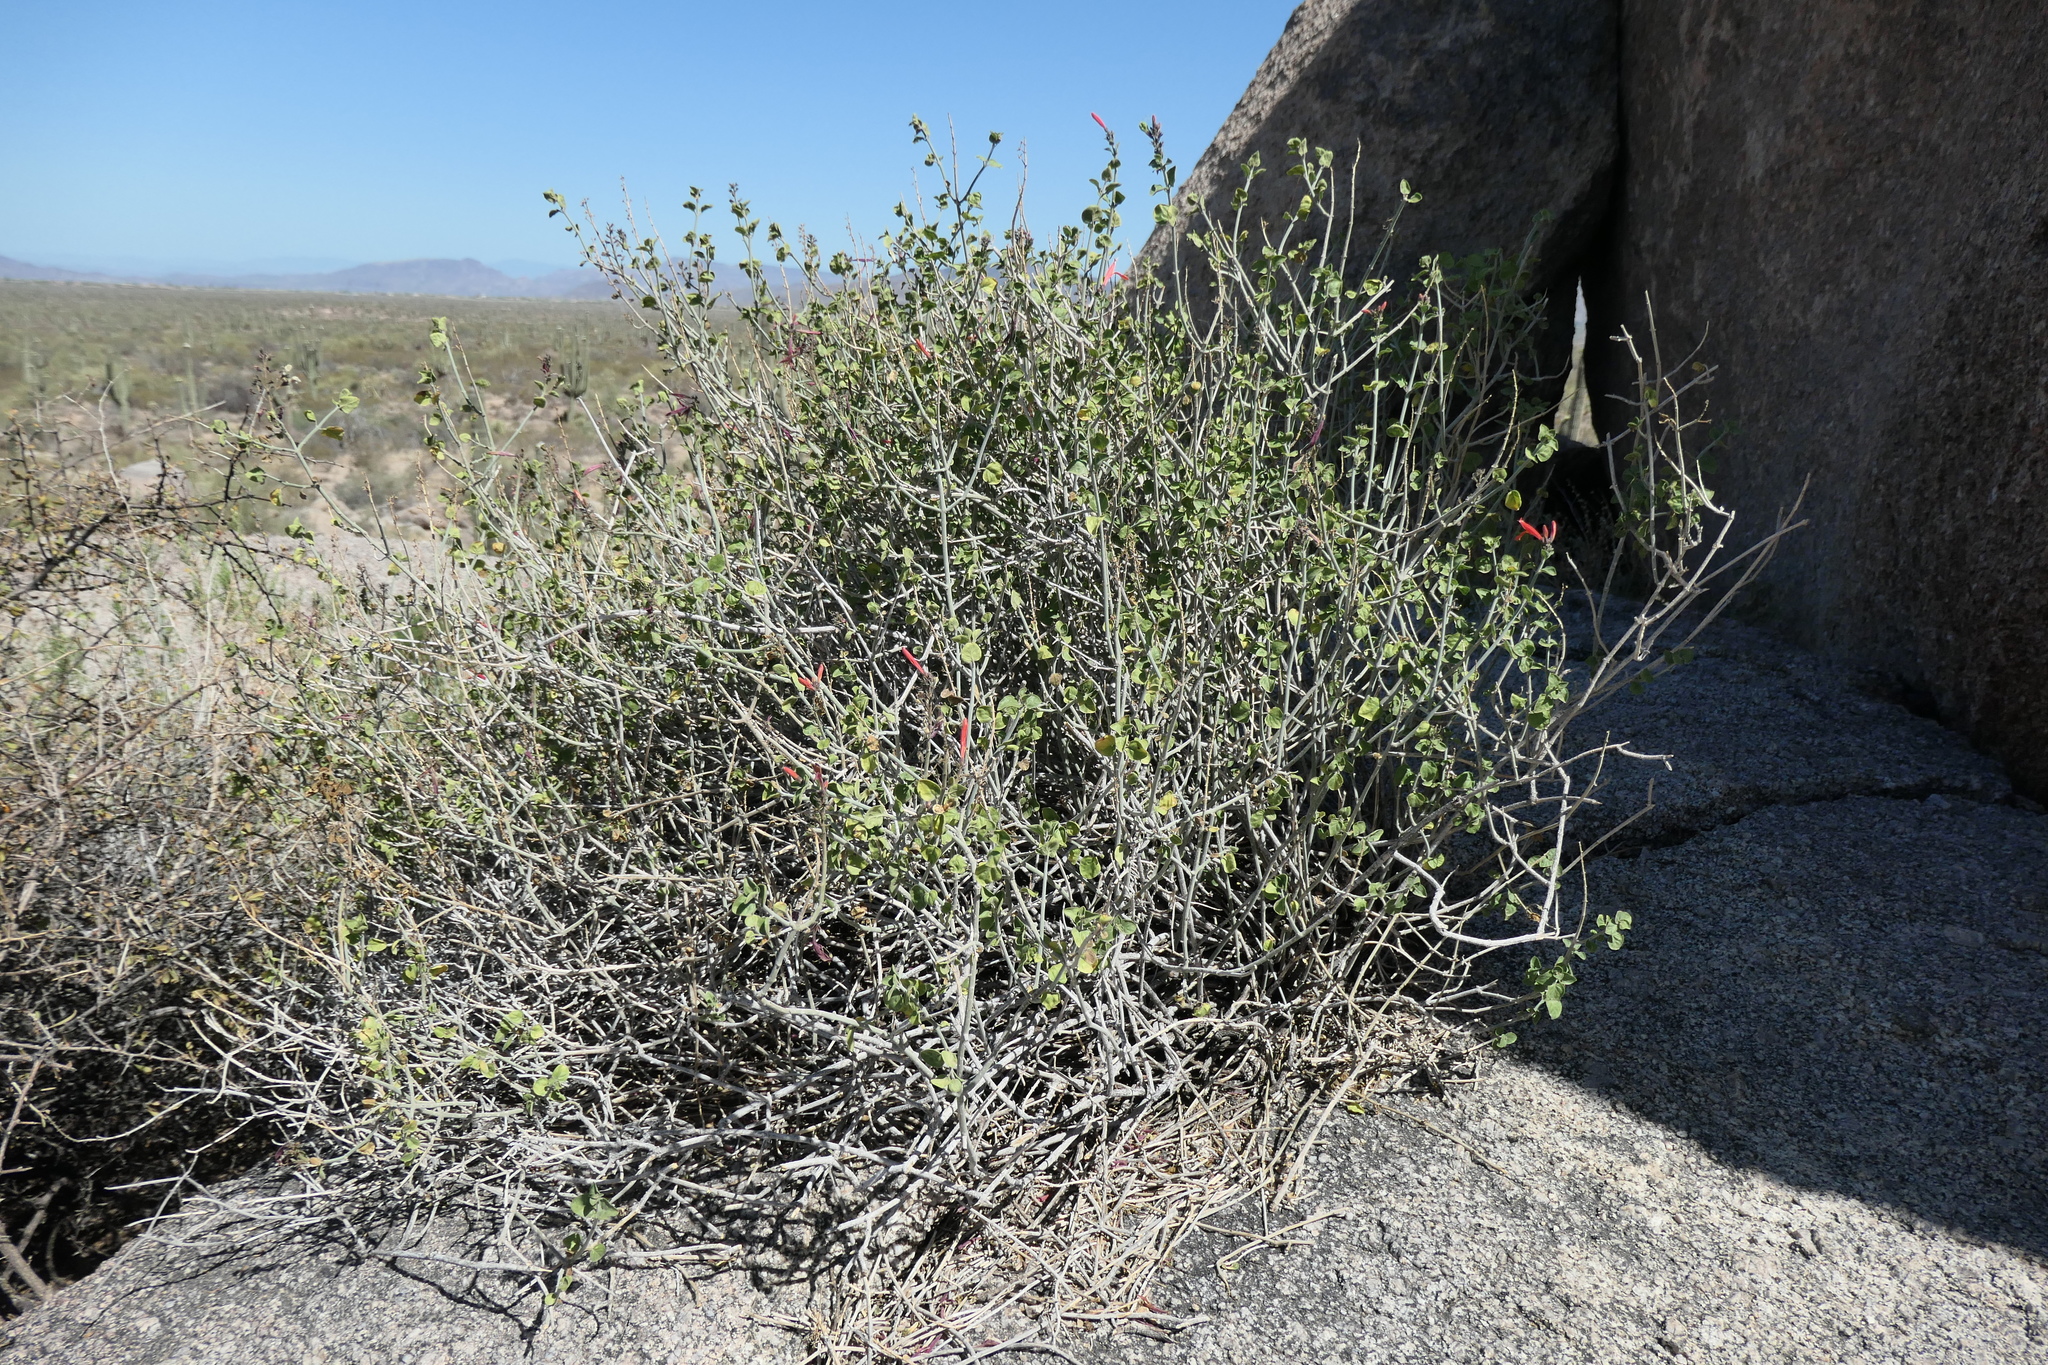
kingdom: Plantae
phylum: Tracheophyta
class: Magnoliopsida
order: Lamiales
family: Acanthaceae
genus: Justicia
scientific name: Justicia californica
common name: Chuparosa-honeysuckle
